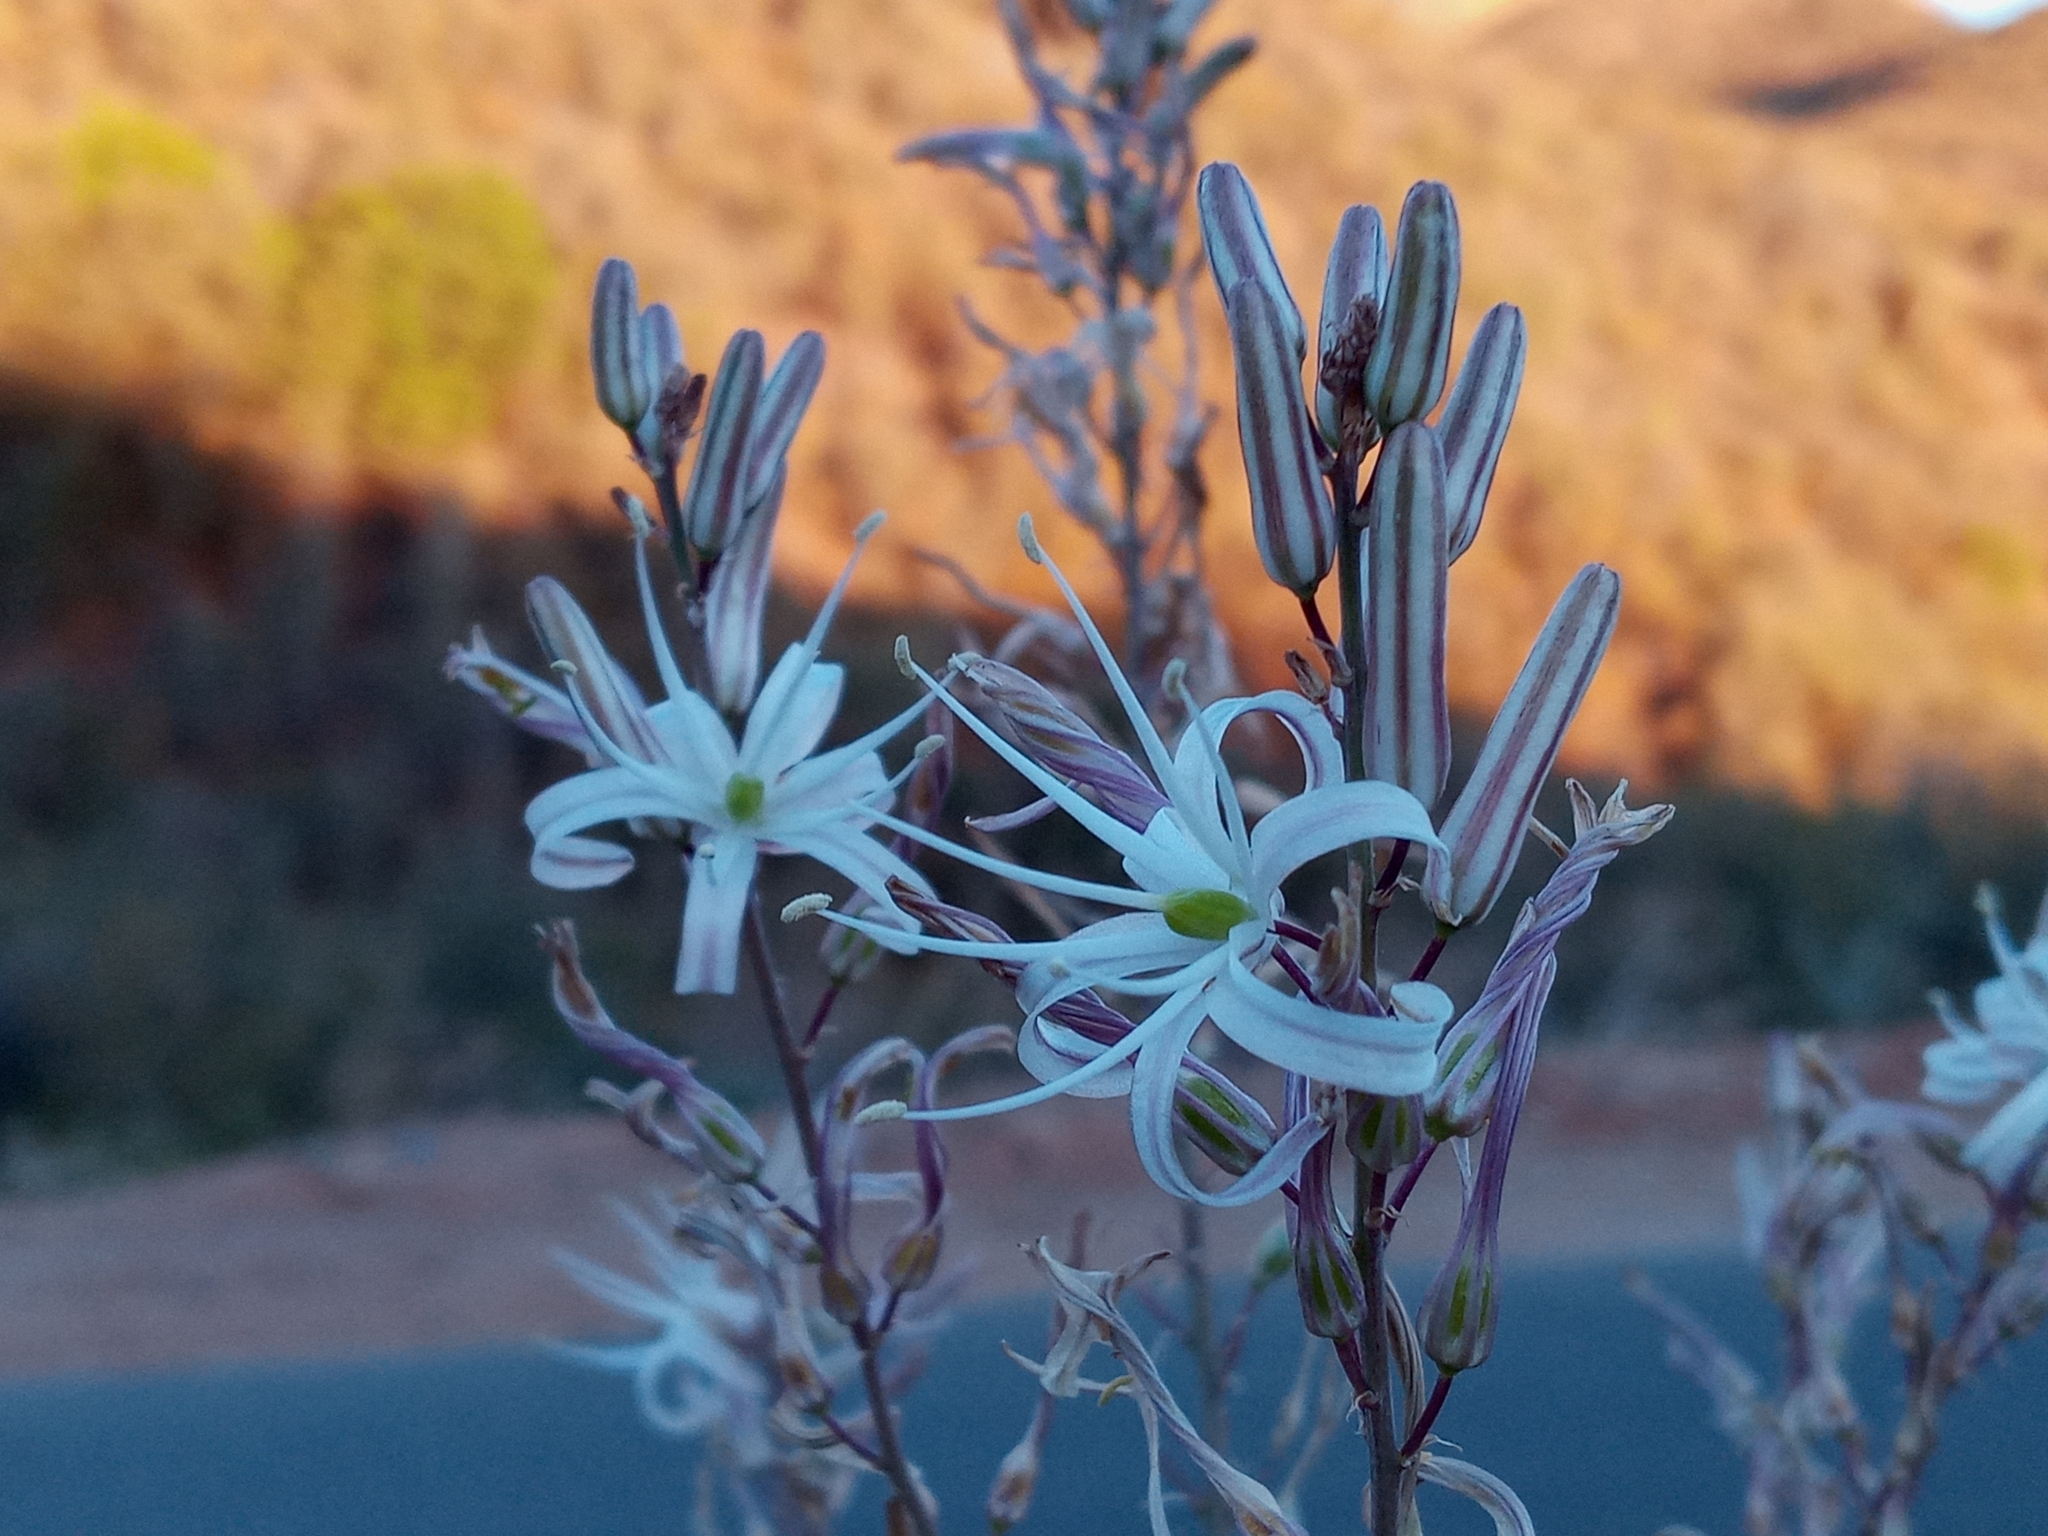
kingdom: Plantae
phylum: Tracheophyta
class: Liliopsida
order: Asparagales
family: Asparagaceae
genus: Chlorogalum
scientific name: Chlorogalum pomeridianum
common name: Amole
